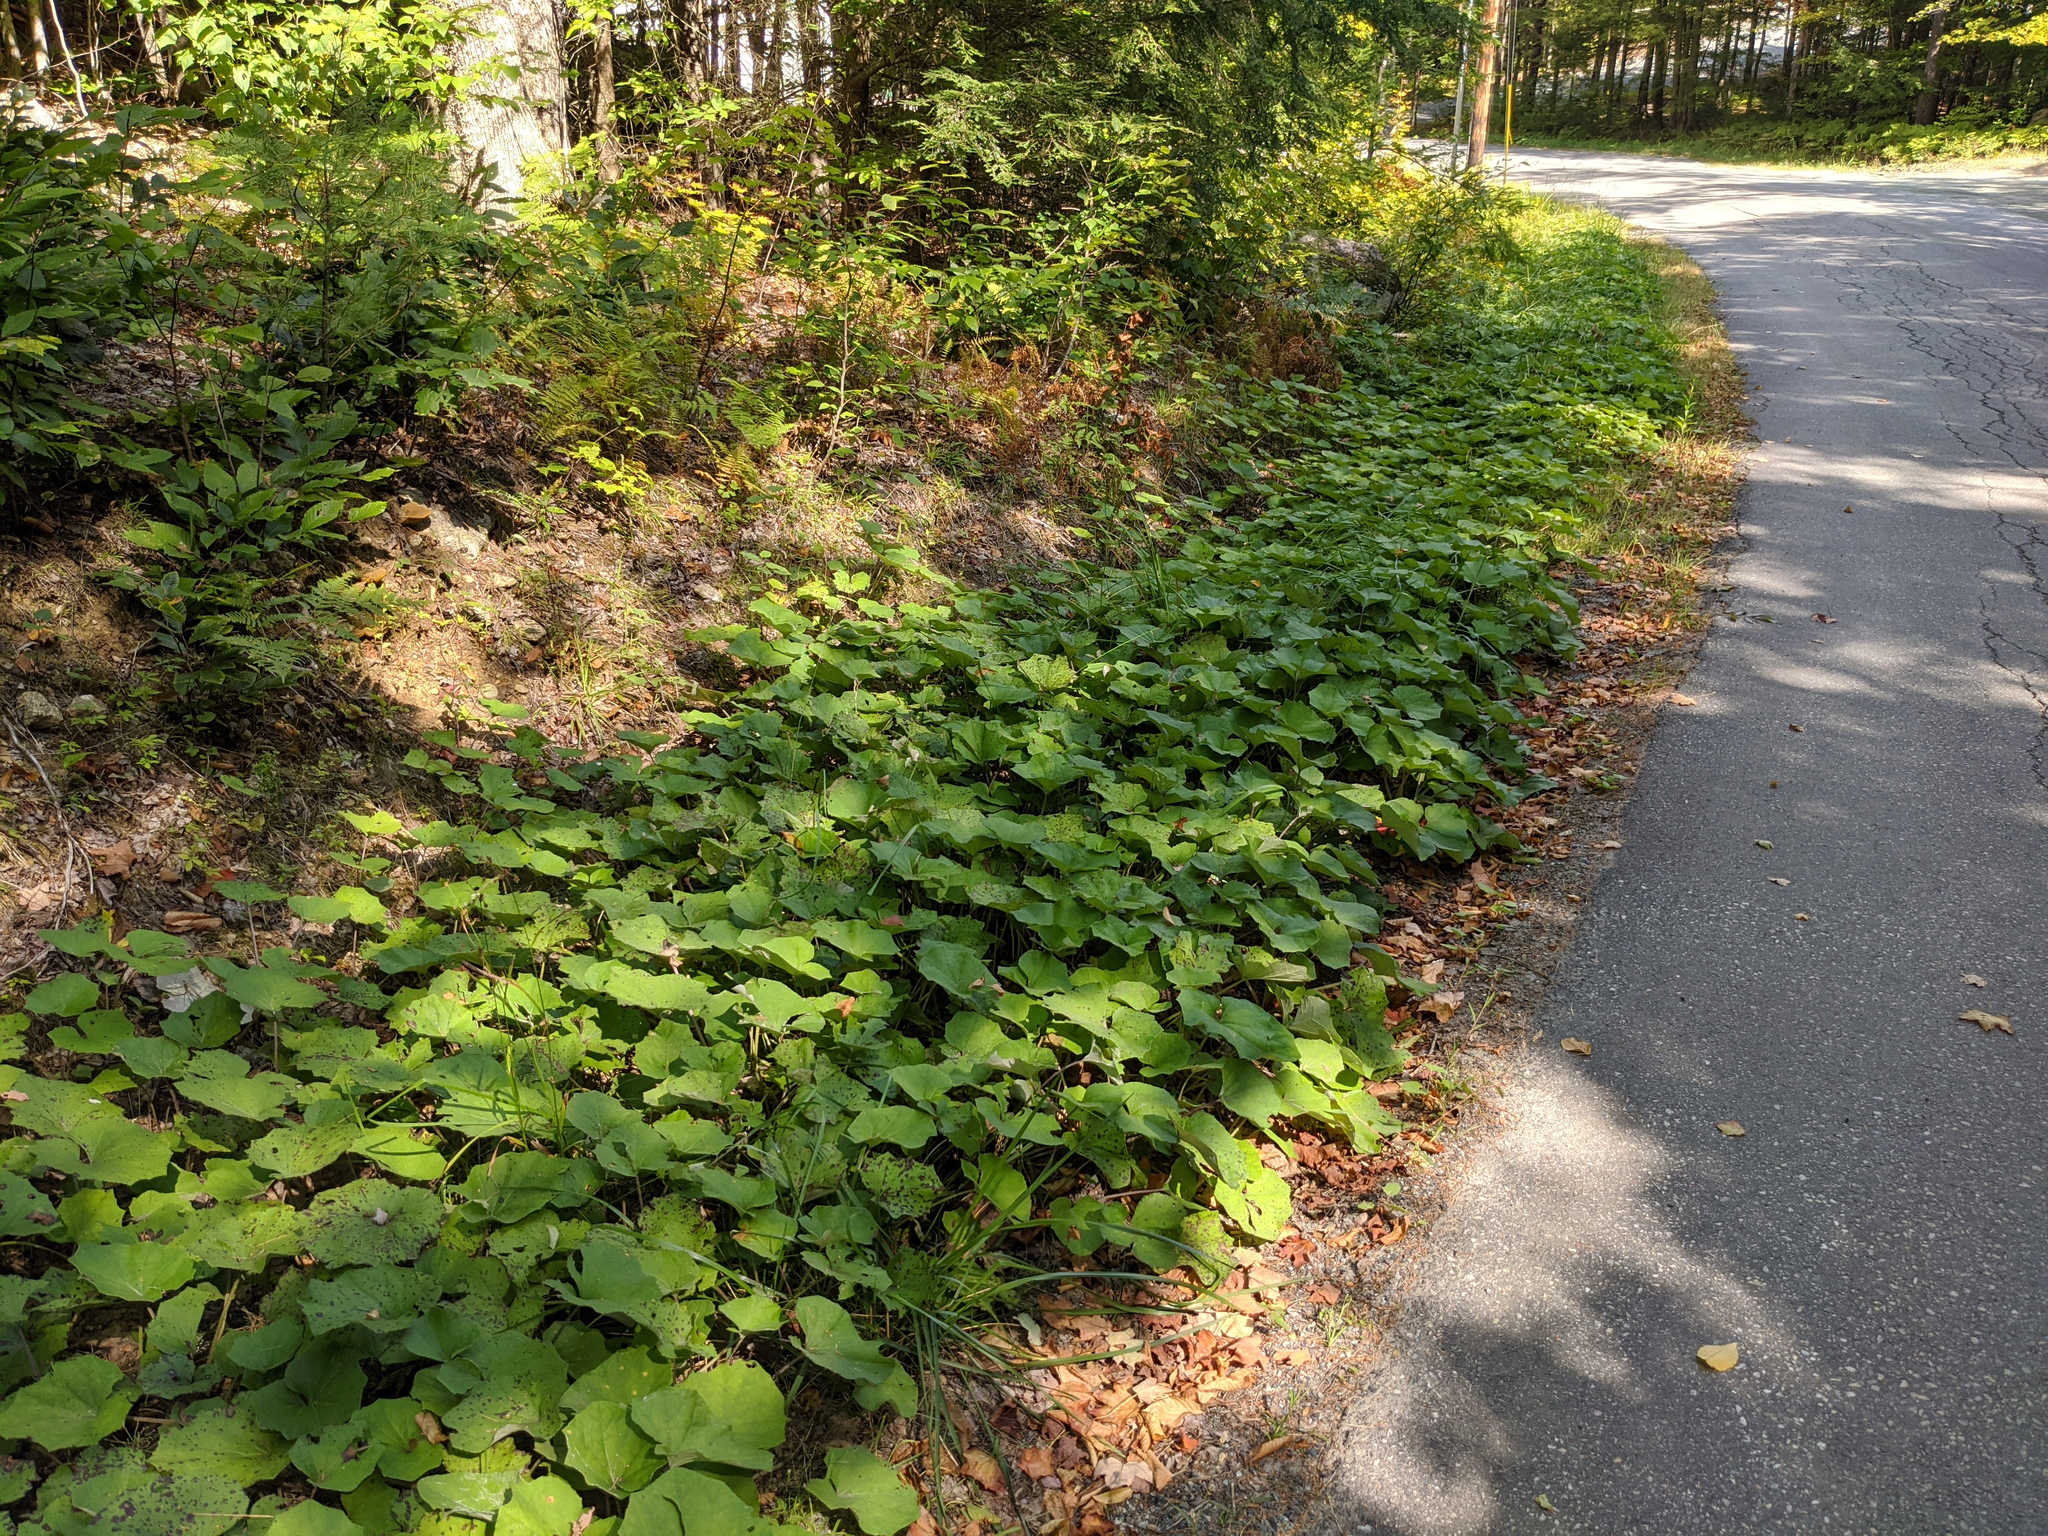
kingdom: Plantae
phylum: Tracheophyta
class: Magnoliopsida
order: Asterales
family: Asteraceae
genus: Tussilago
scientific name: Tussilago farfara
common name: Coltsfoot
